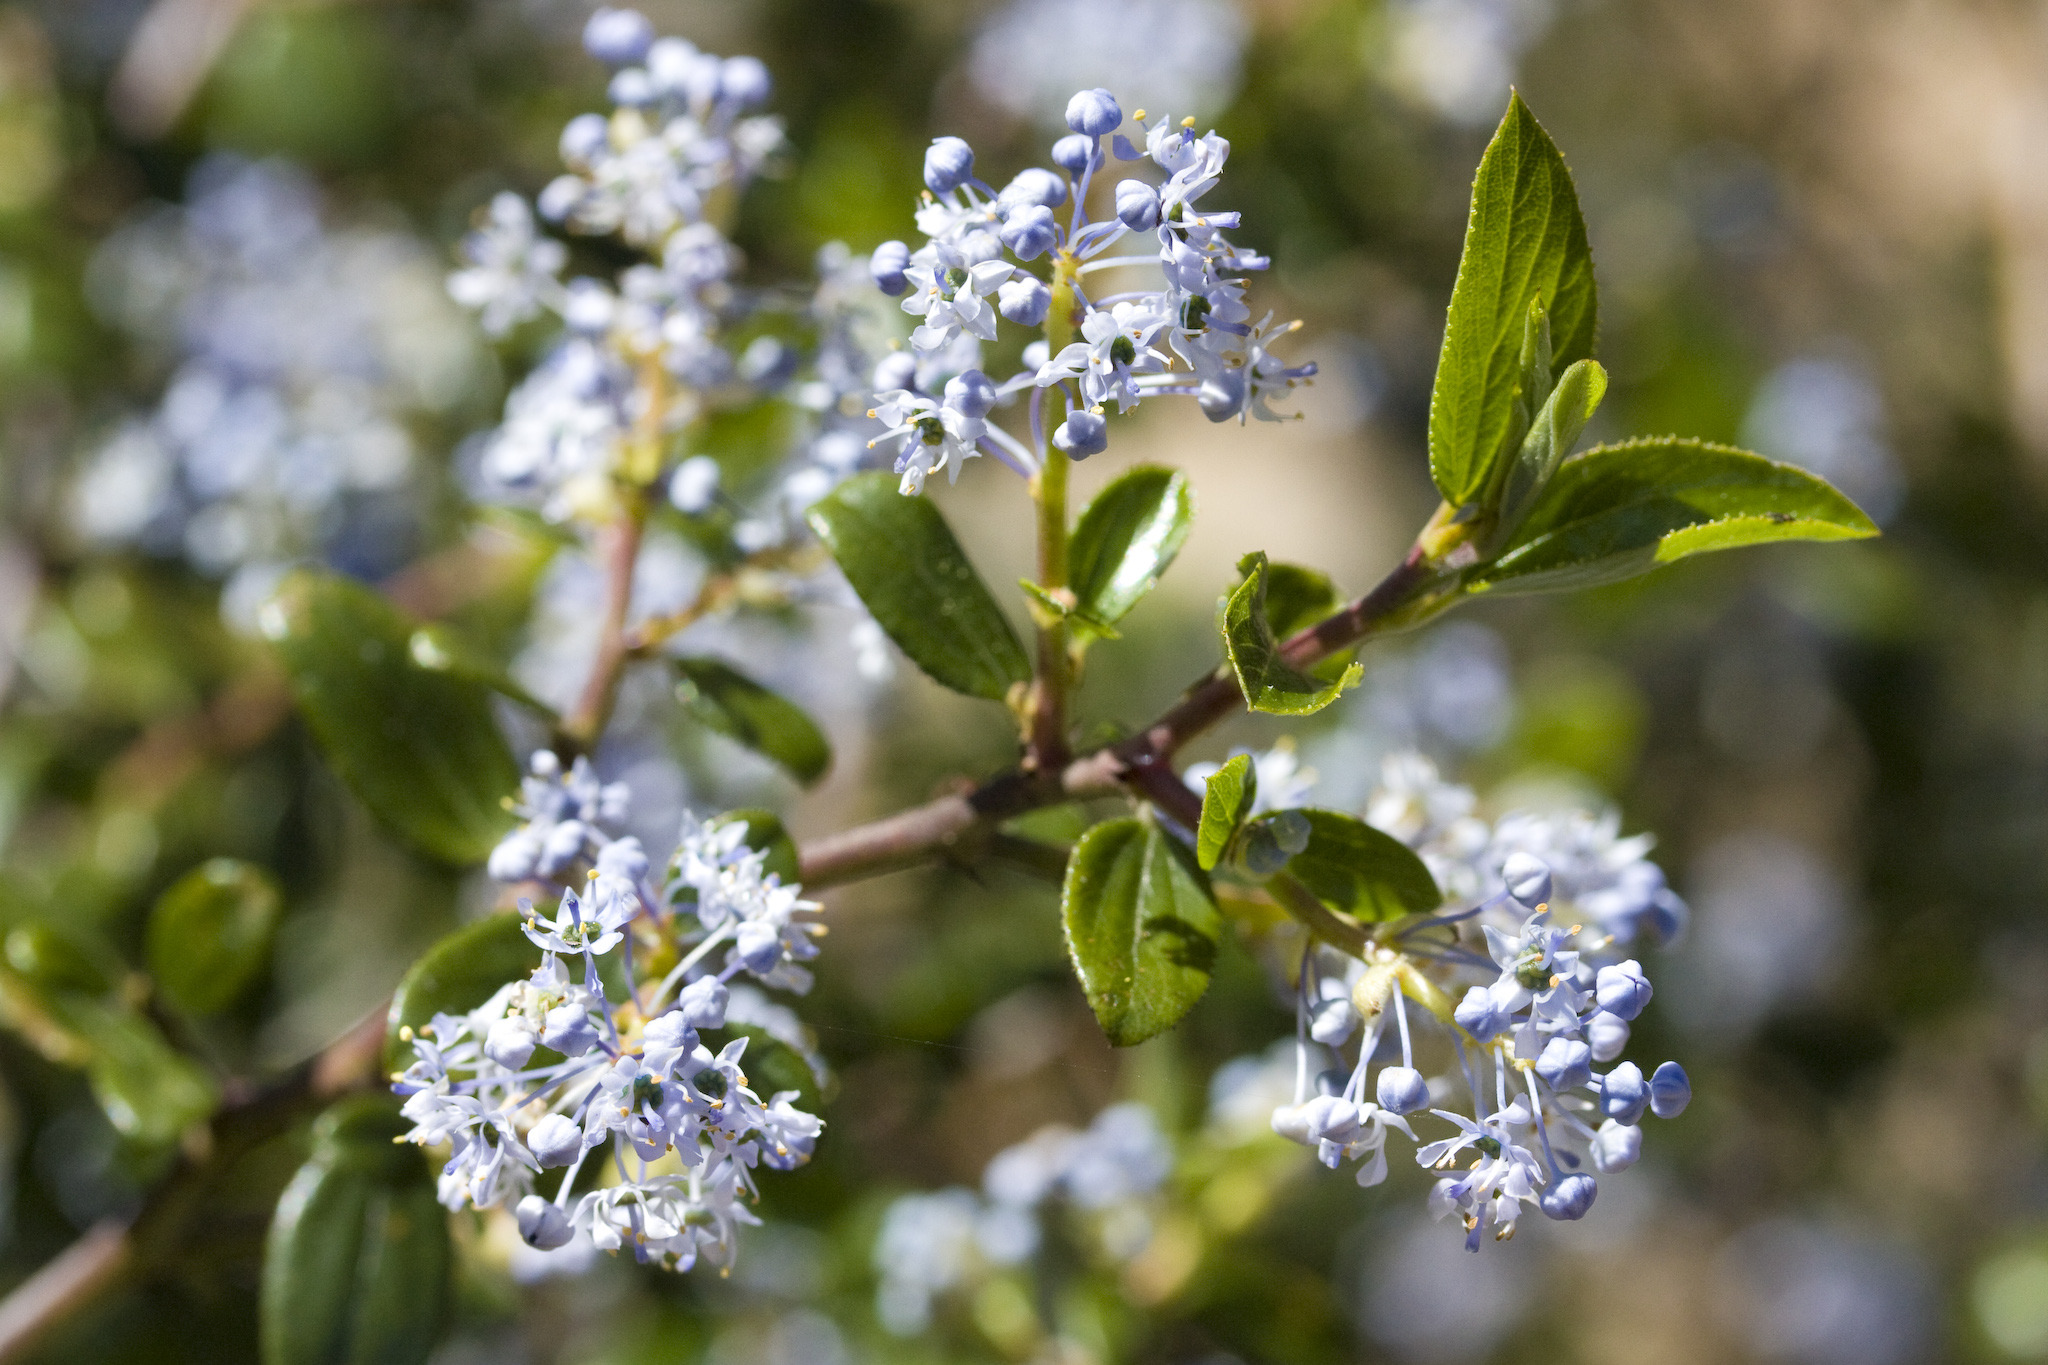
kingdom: Plantae
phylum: Tracheophyta
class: Magnoliopsida
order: Rosales
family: Rhamnaceae
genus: Ceanothus
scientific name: Ceanothus oliganthus
